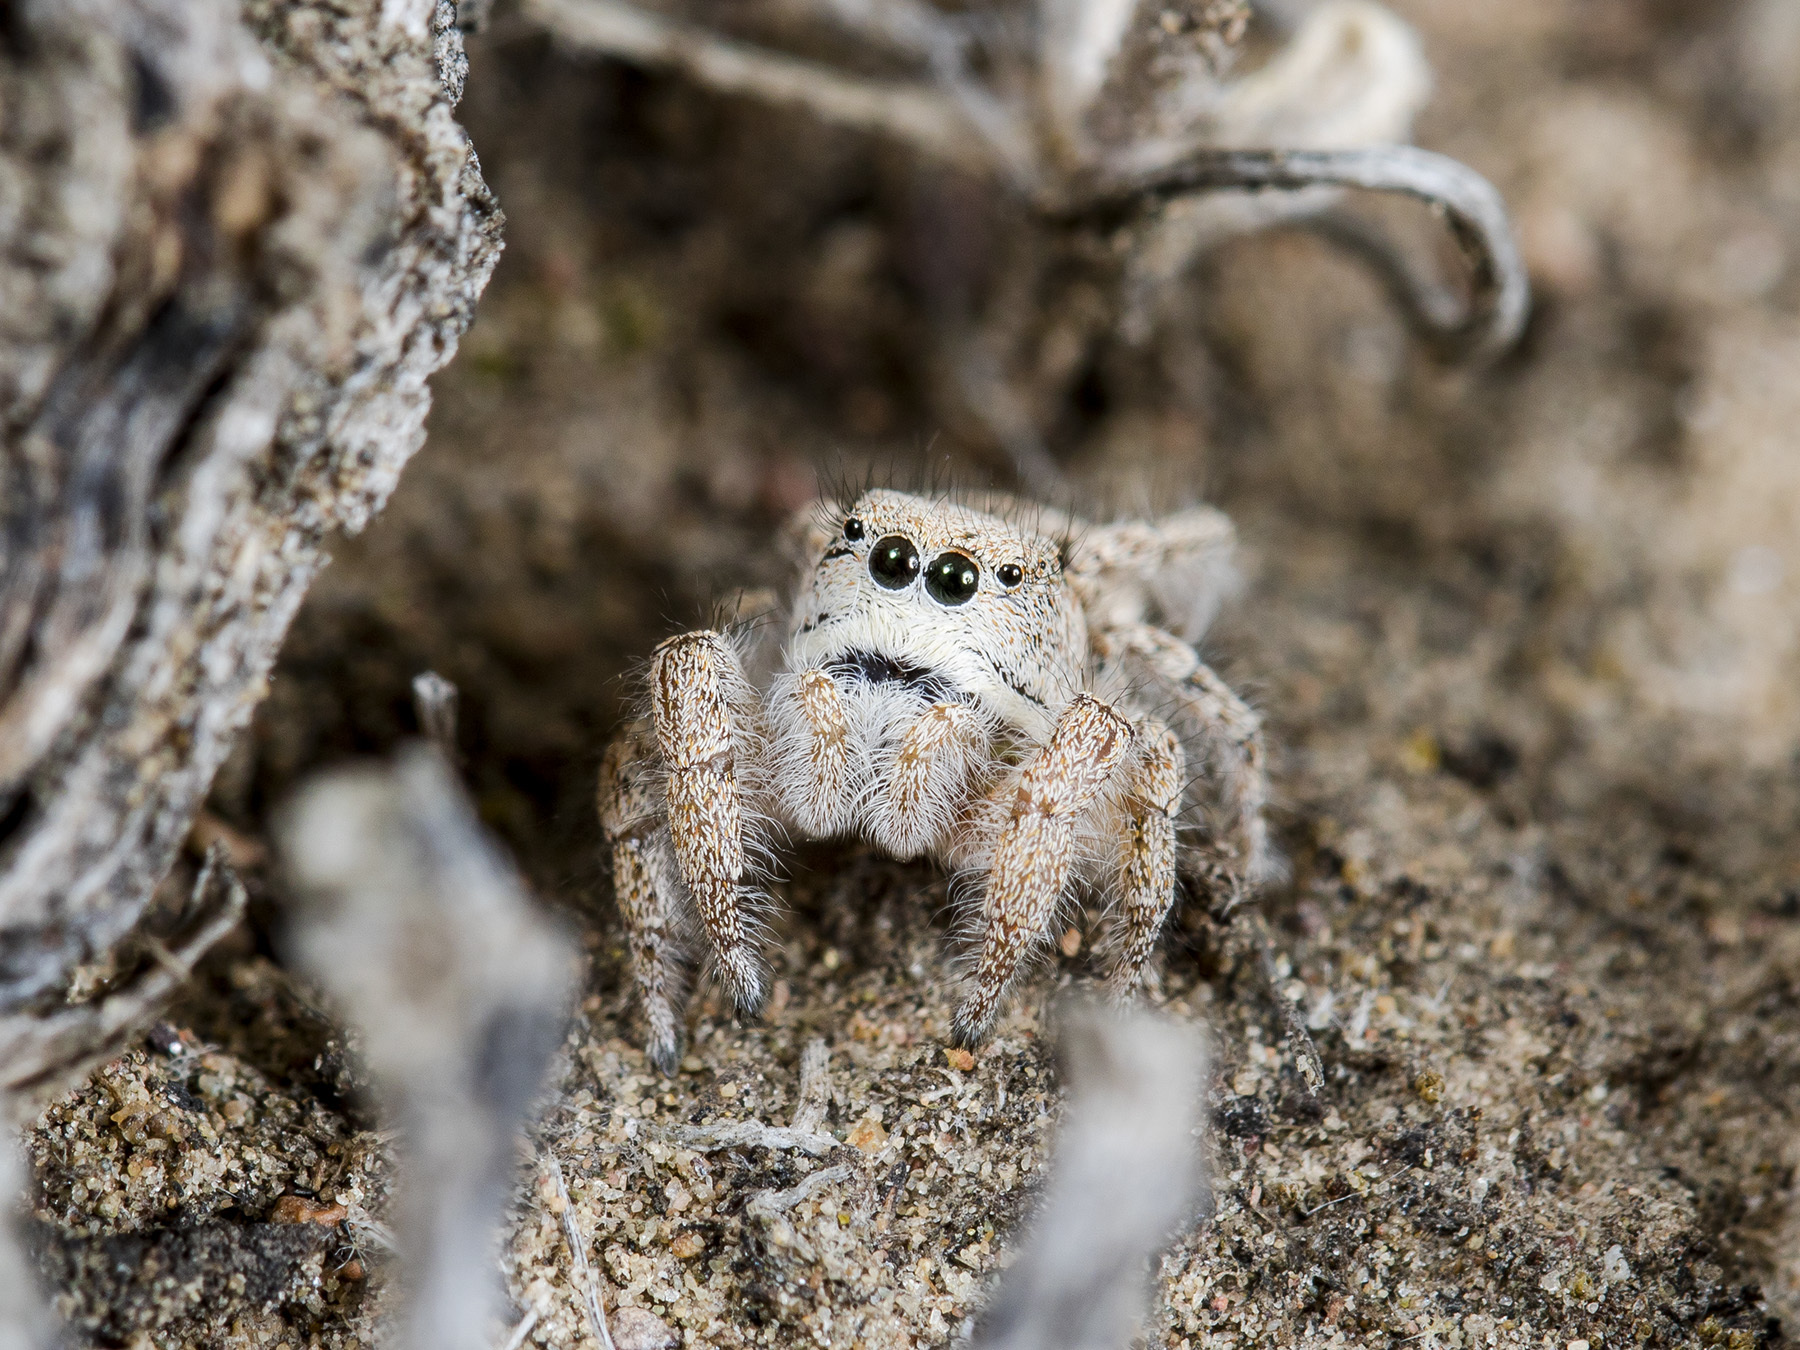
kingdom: Animalia
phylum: Arthropoda
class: Arachnida
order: Araneae
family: Salticidae
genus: Pseudomogrus
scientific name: Pseudomogrus zhilgaensis
